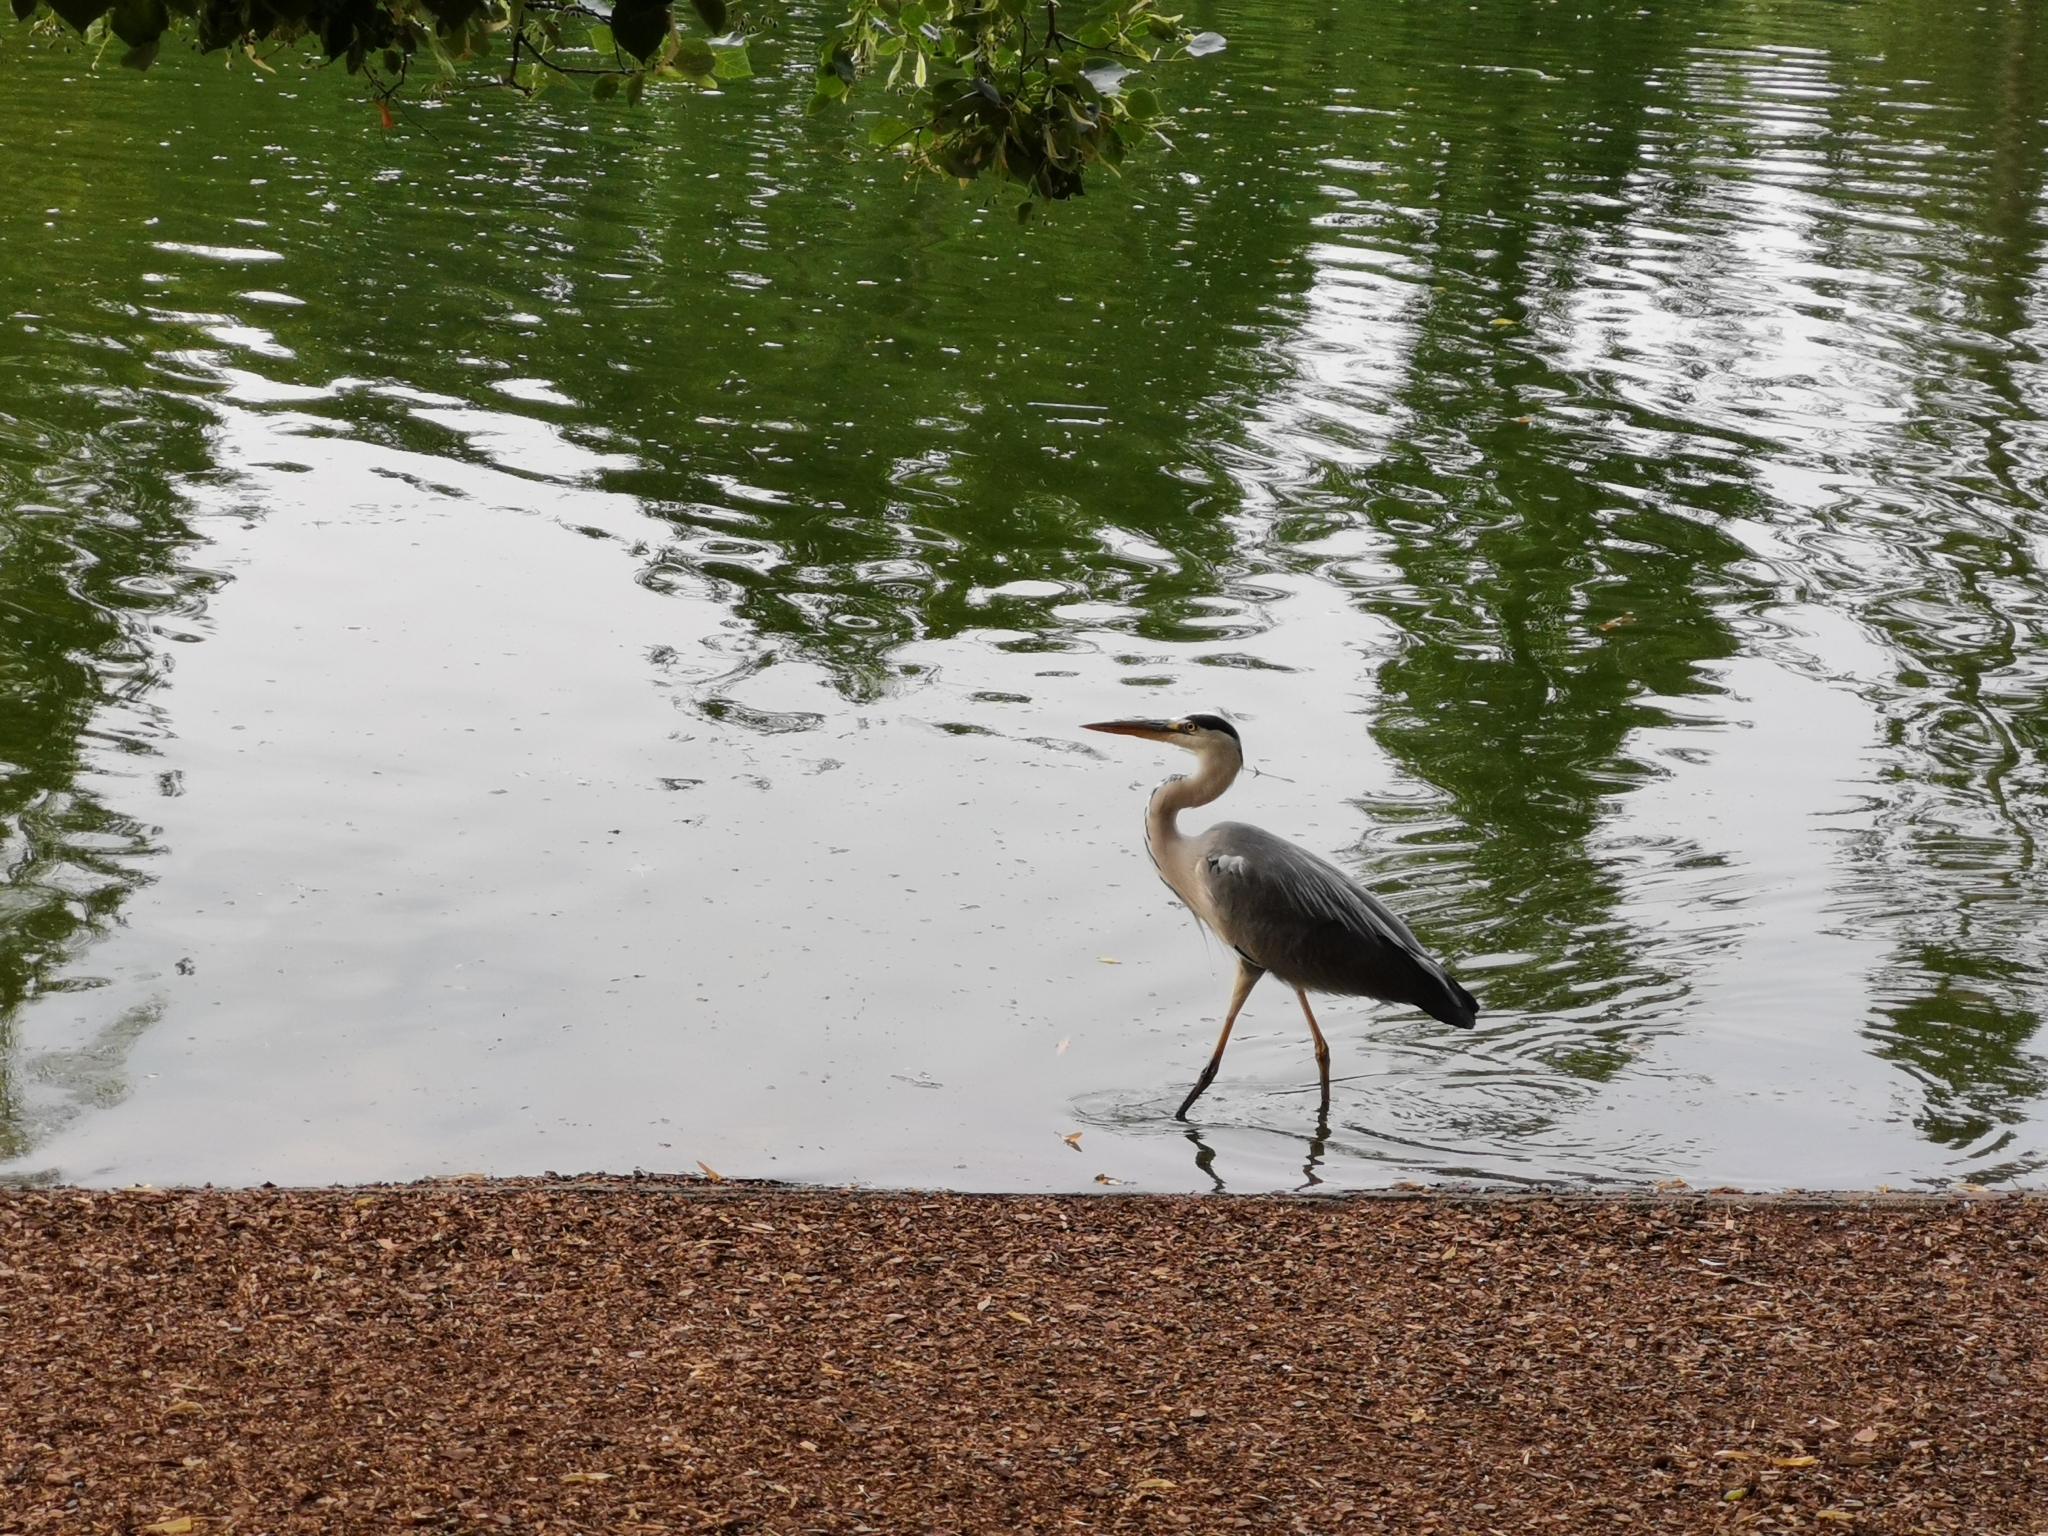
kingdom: Animalia
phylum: Chordata
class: Aves
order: Pelecaniformes
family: Ardeidae
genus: Ardea
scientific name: Ardea cinerea
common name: Grey heron
